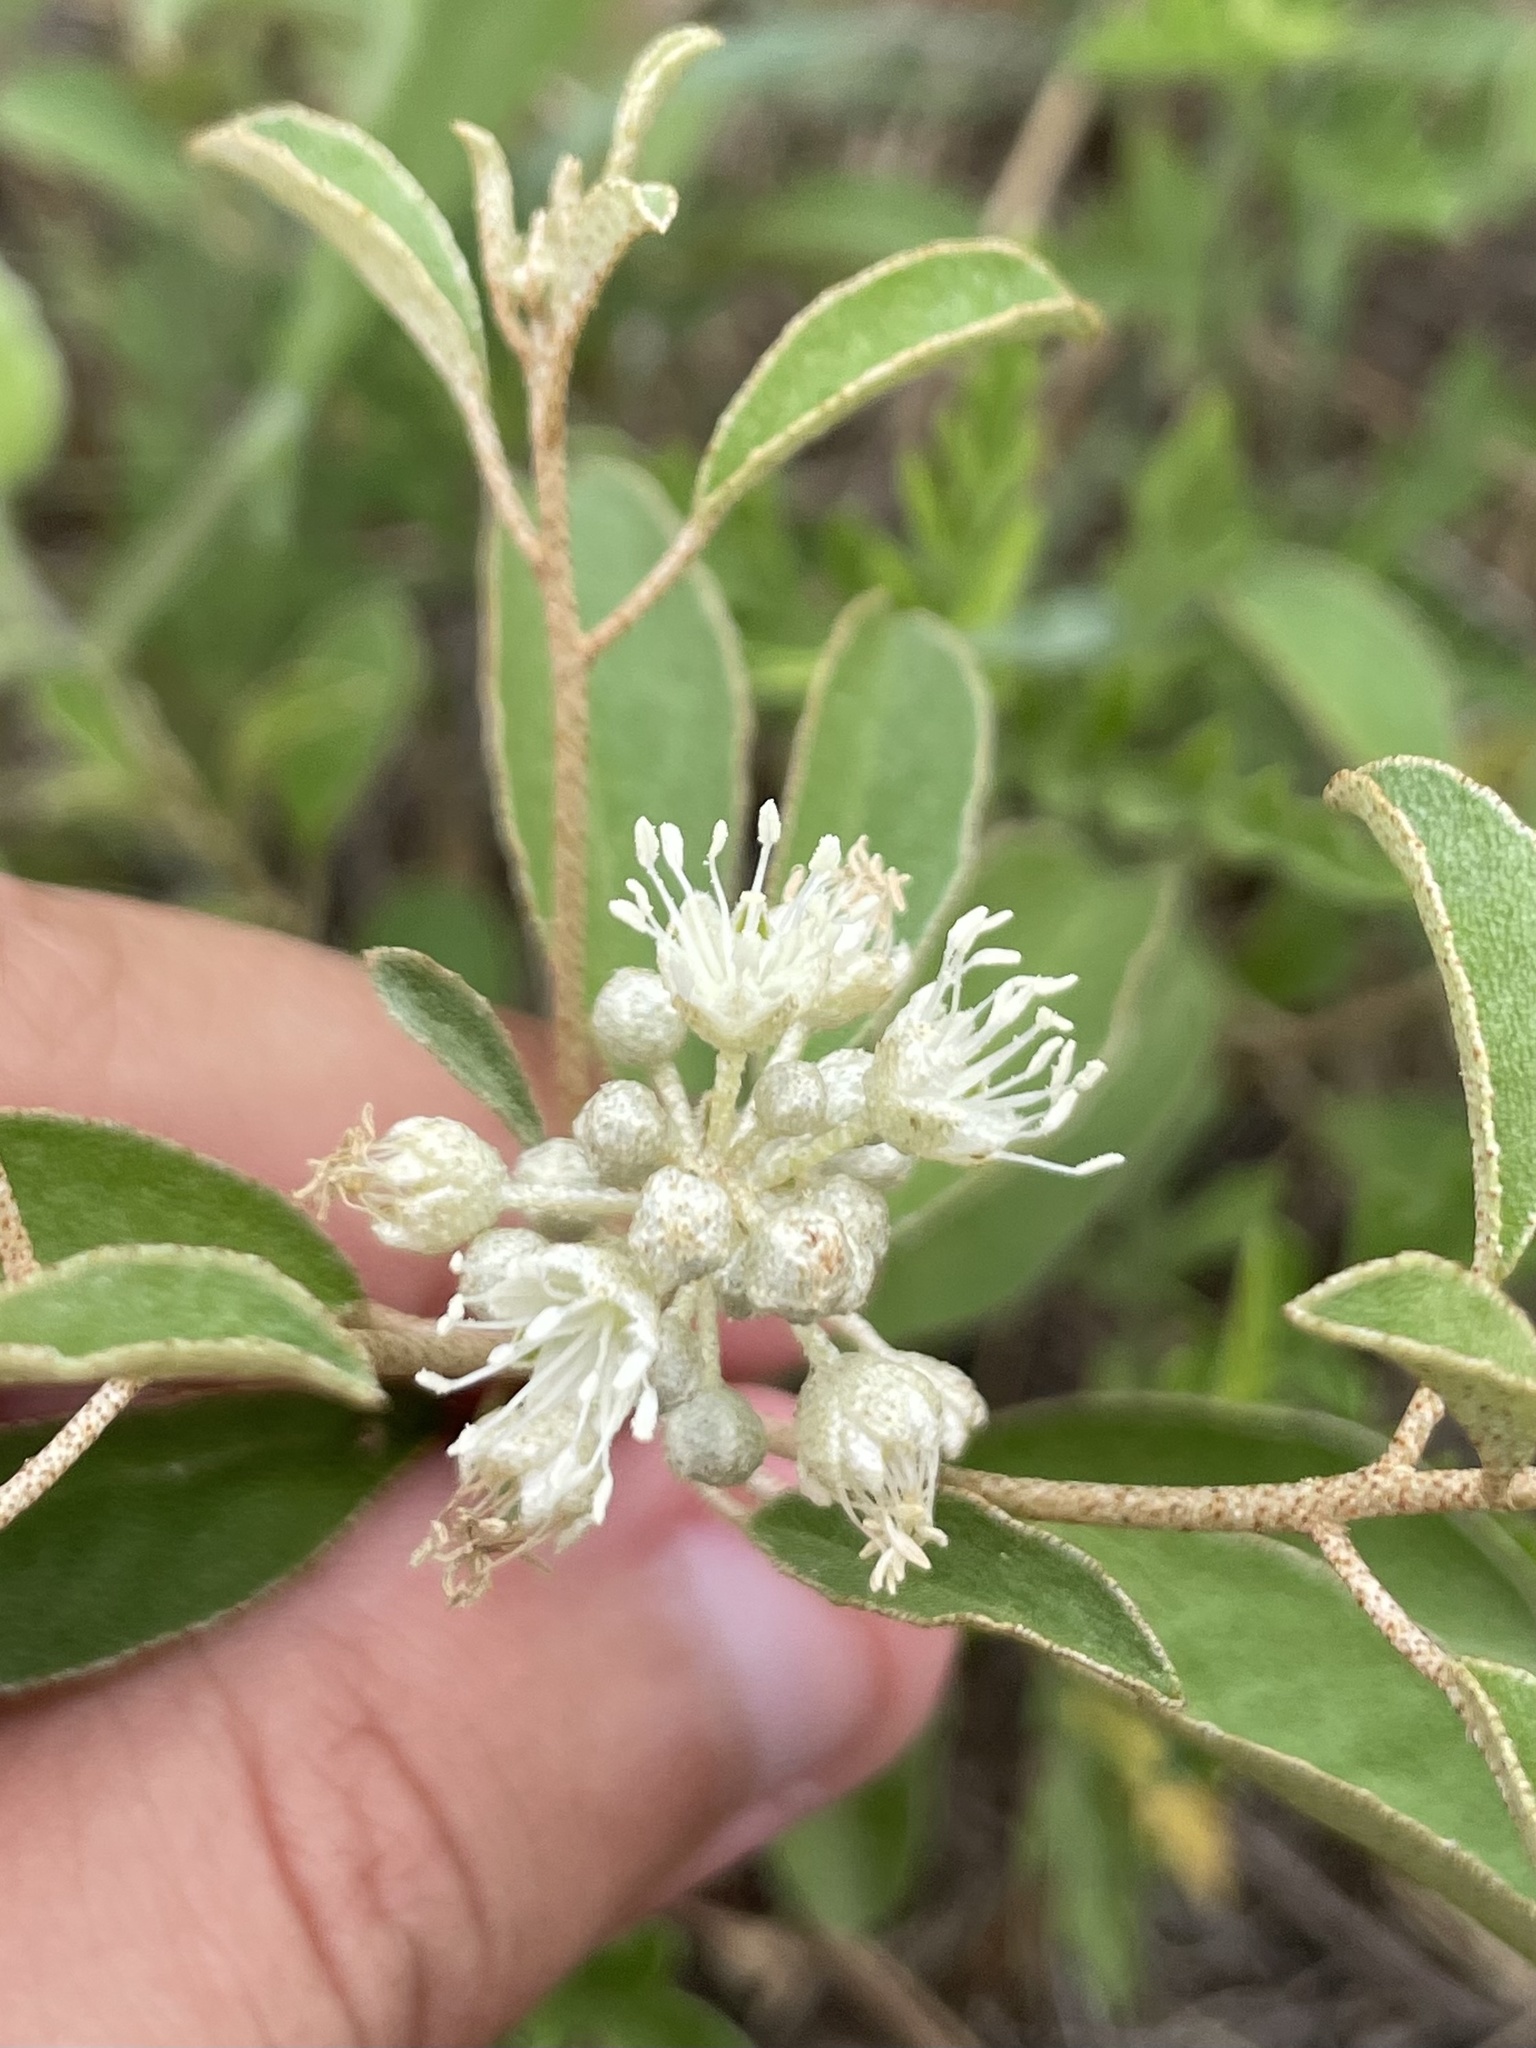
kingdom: Plantae
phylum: Tracheophyta
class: Magnoliopsida
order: Malpighiales
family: Euphorbiaceae
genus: Croton
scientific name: Croton argyranthemus
